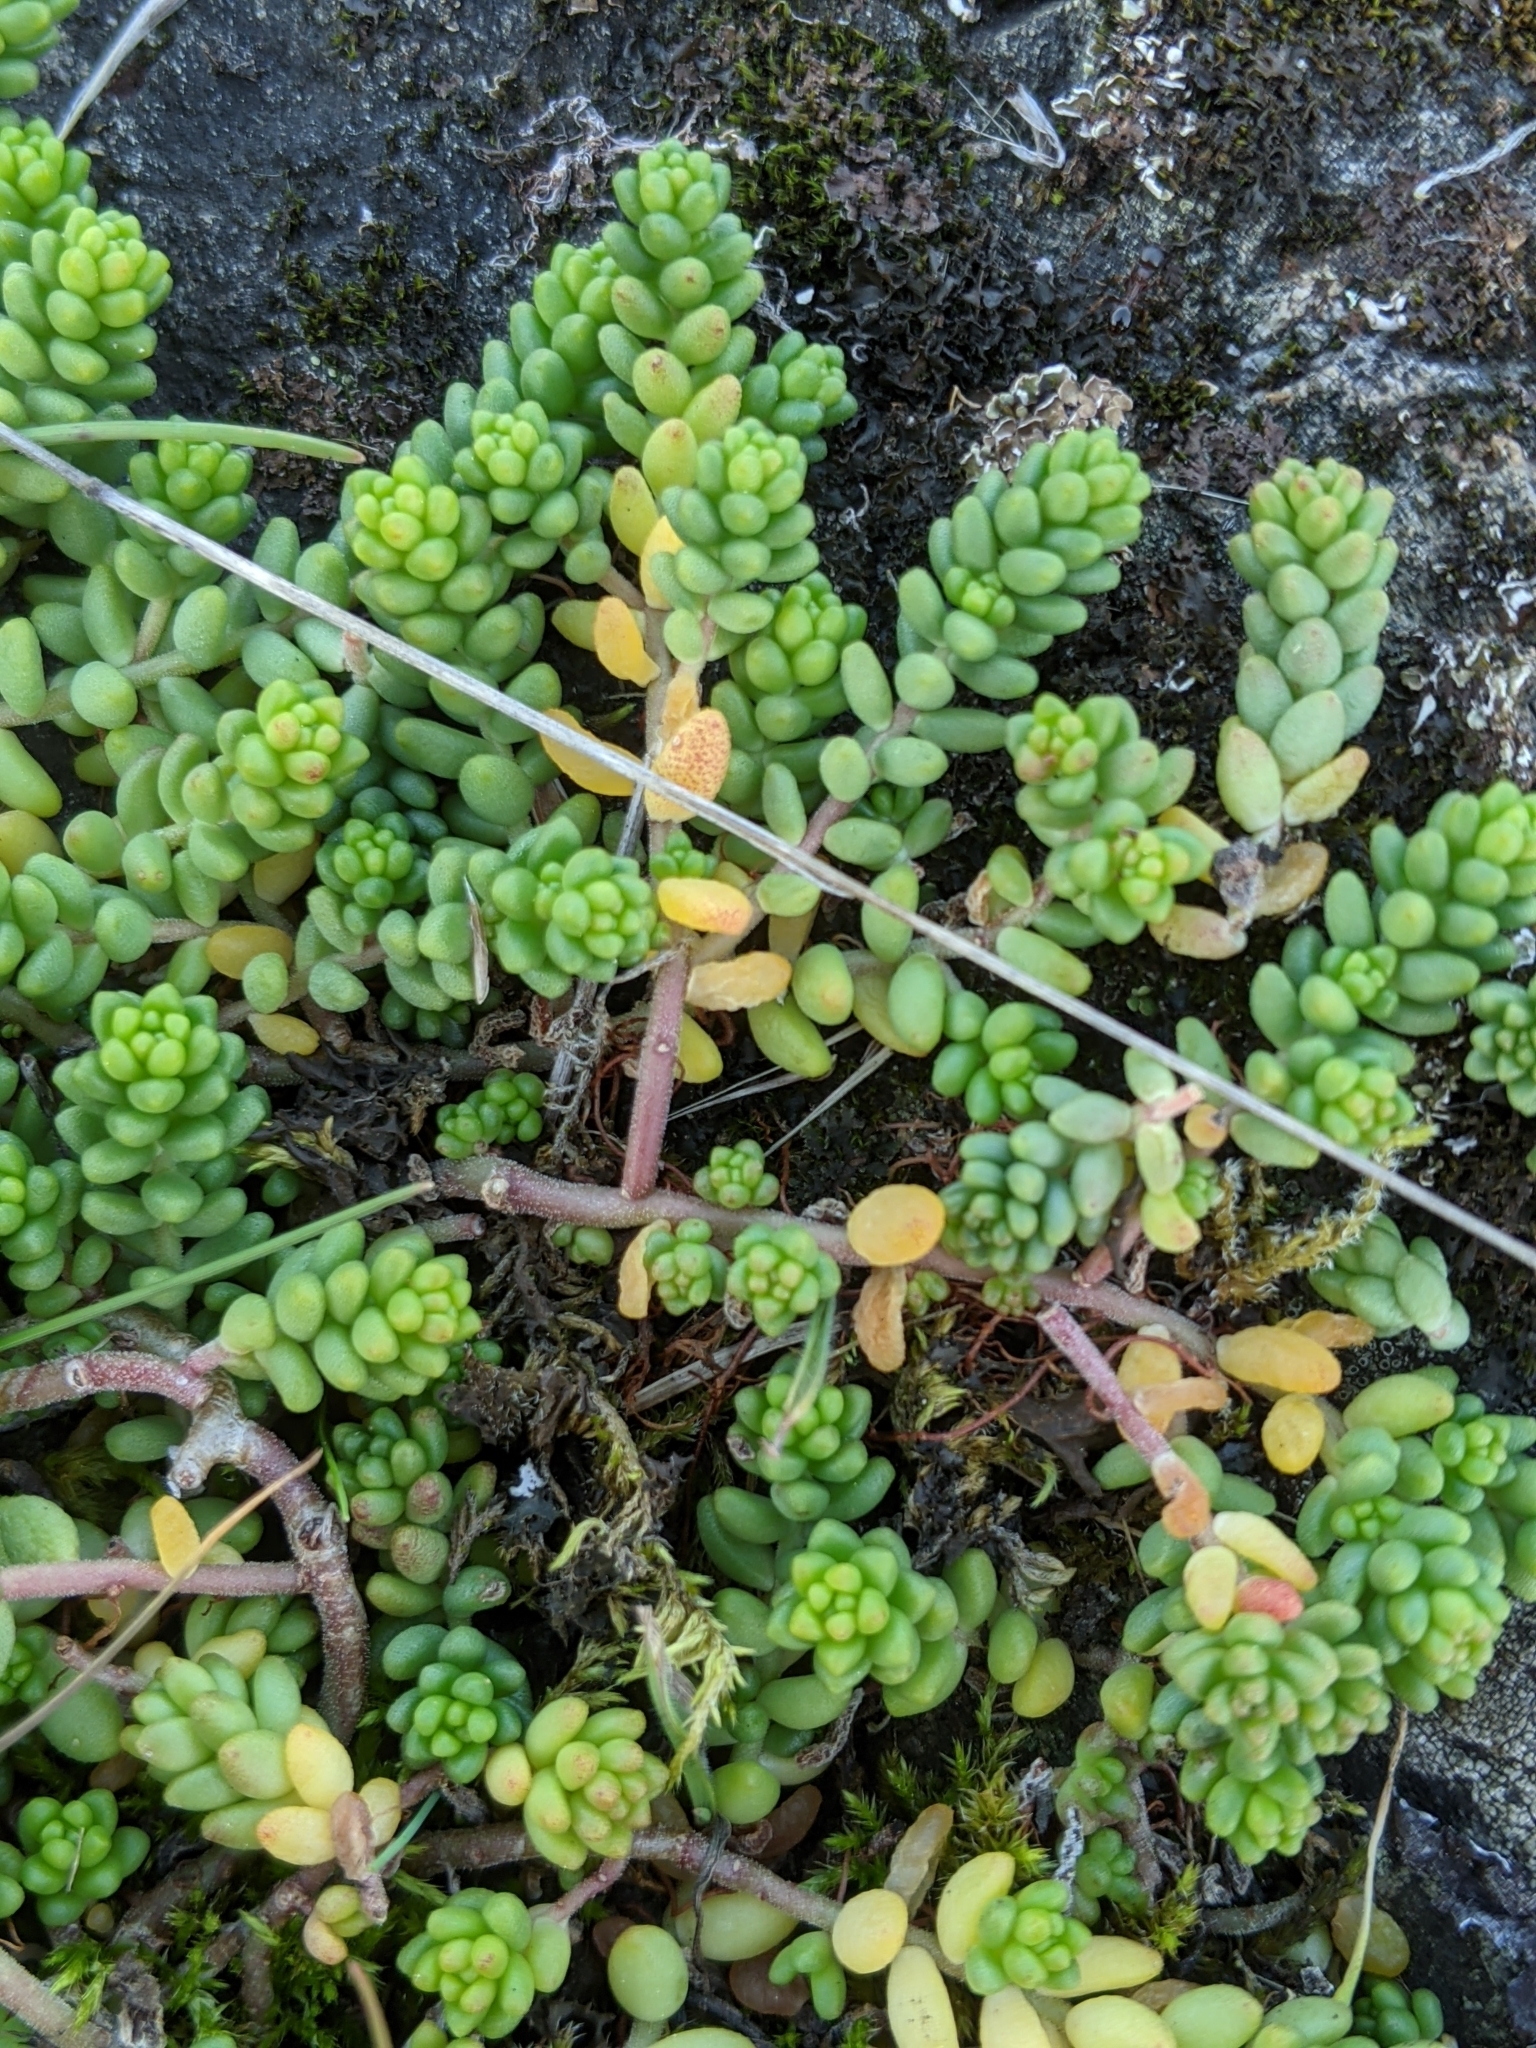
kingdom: Plantae
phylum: Tracheophyta
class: Magnoliopsida
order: Saxifragales
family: Crassulaceae
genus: Sedum
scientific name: Sedum album
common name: White stonecrop
